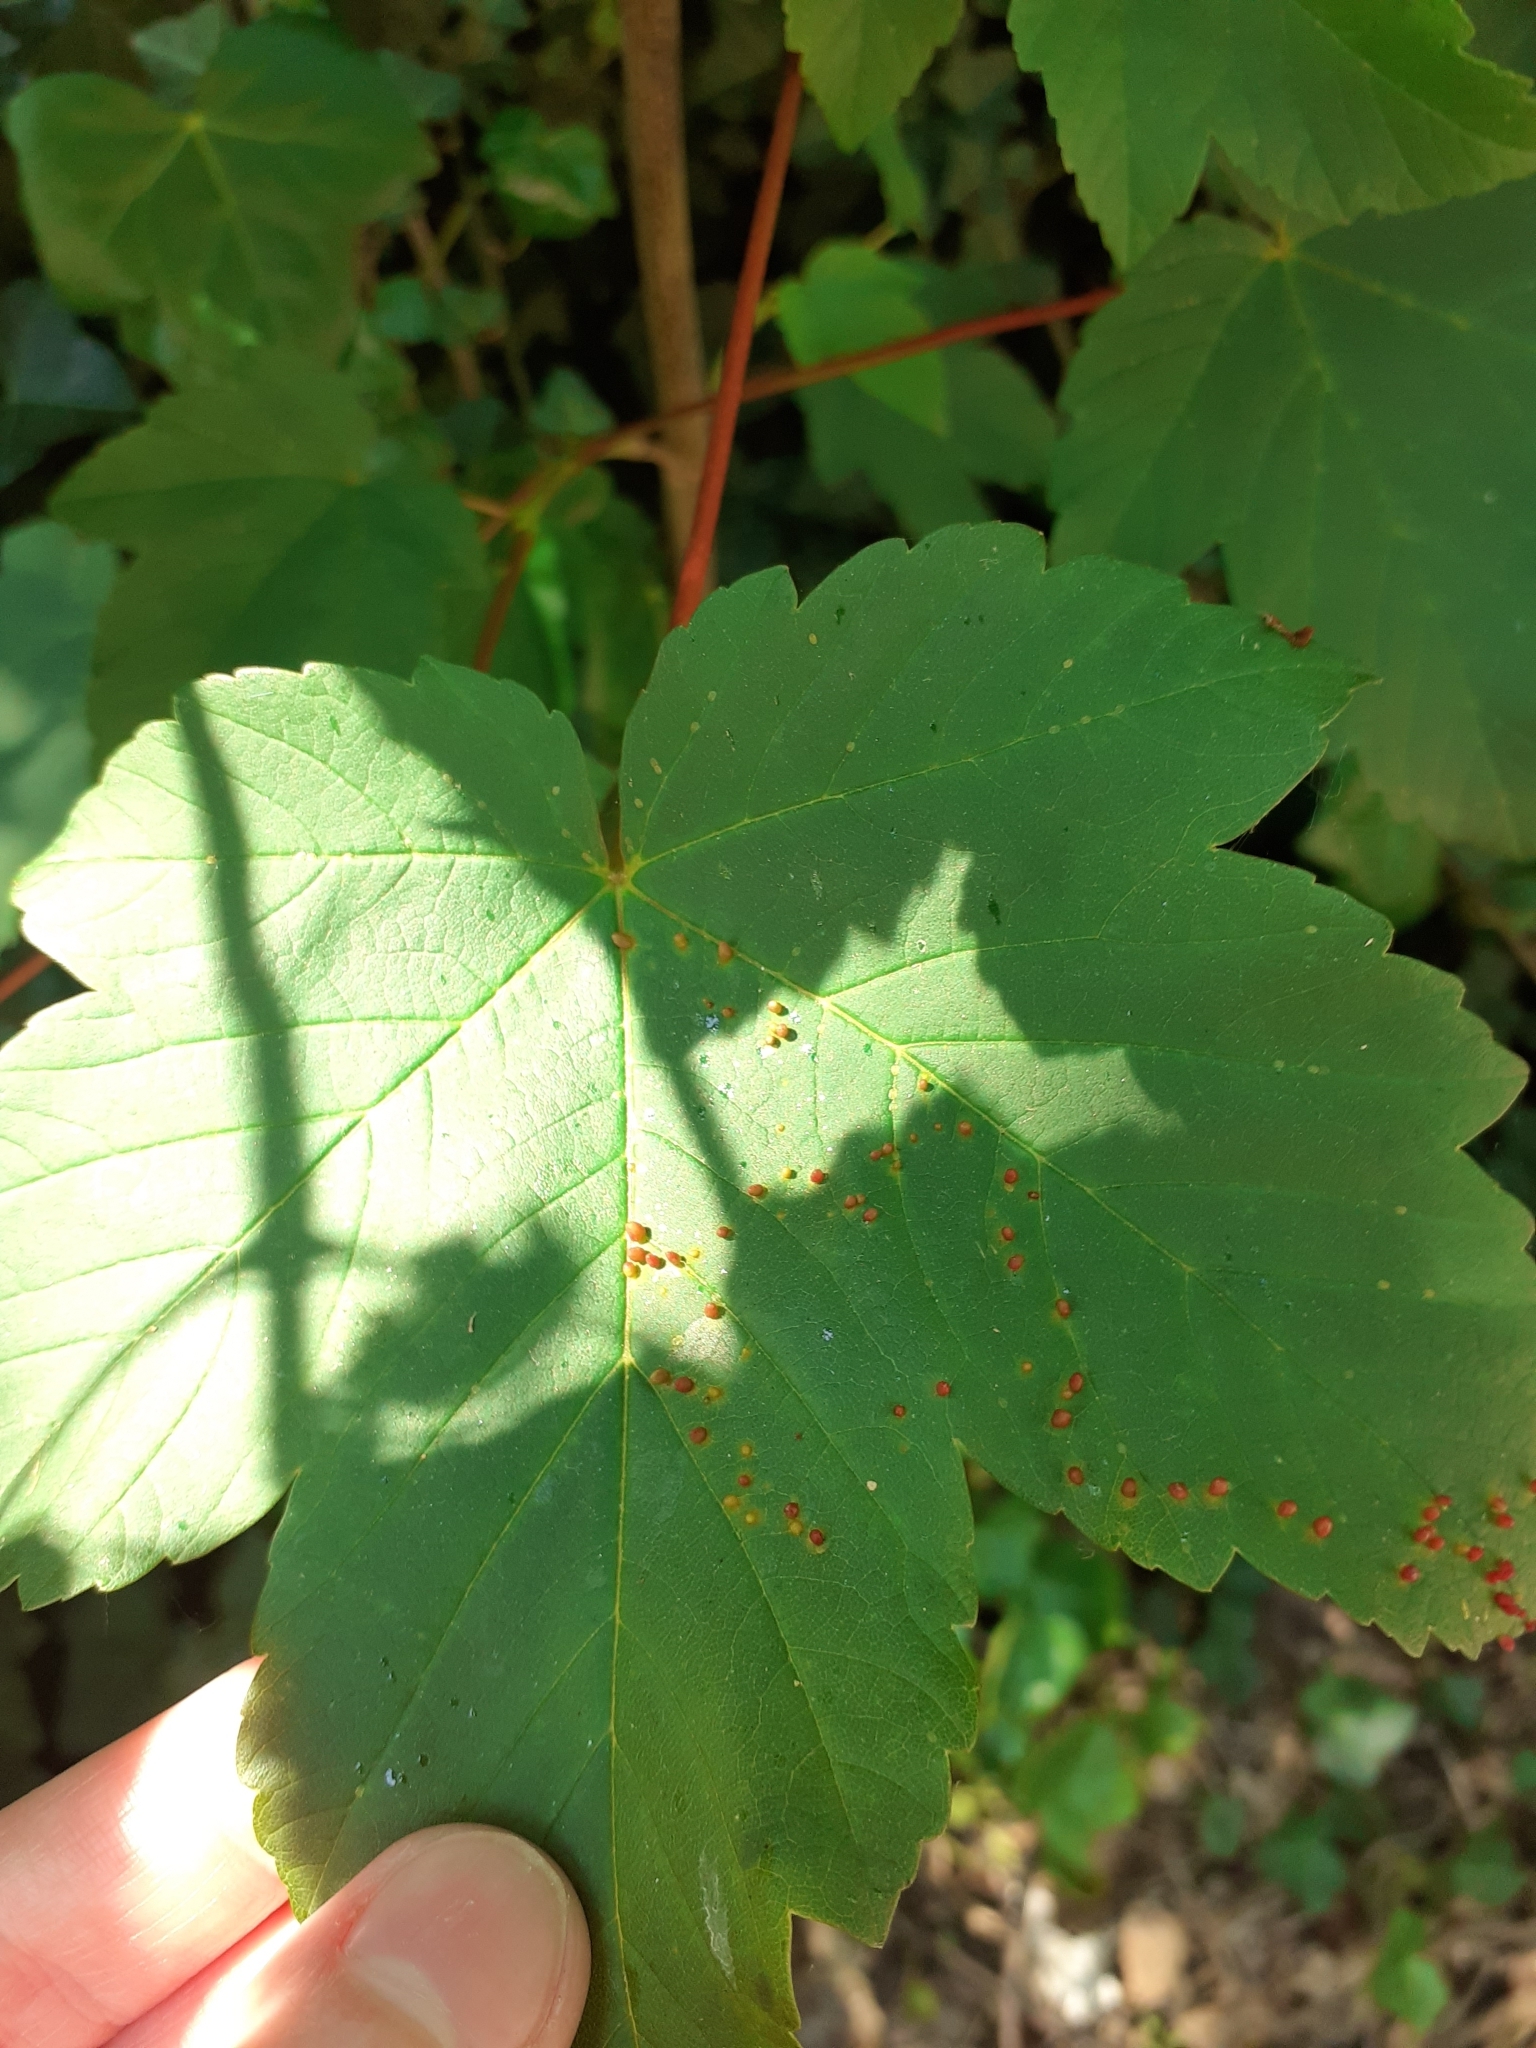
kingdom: Animalia
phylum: Arthropoda
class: Arachnida
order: Trombidiformes
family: Eriophyidae
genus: Aceria
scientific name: Aceria cephaloneus
